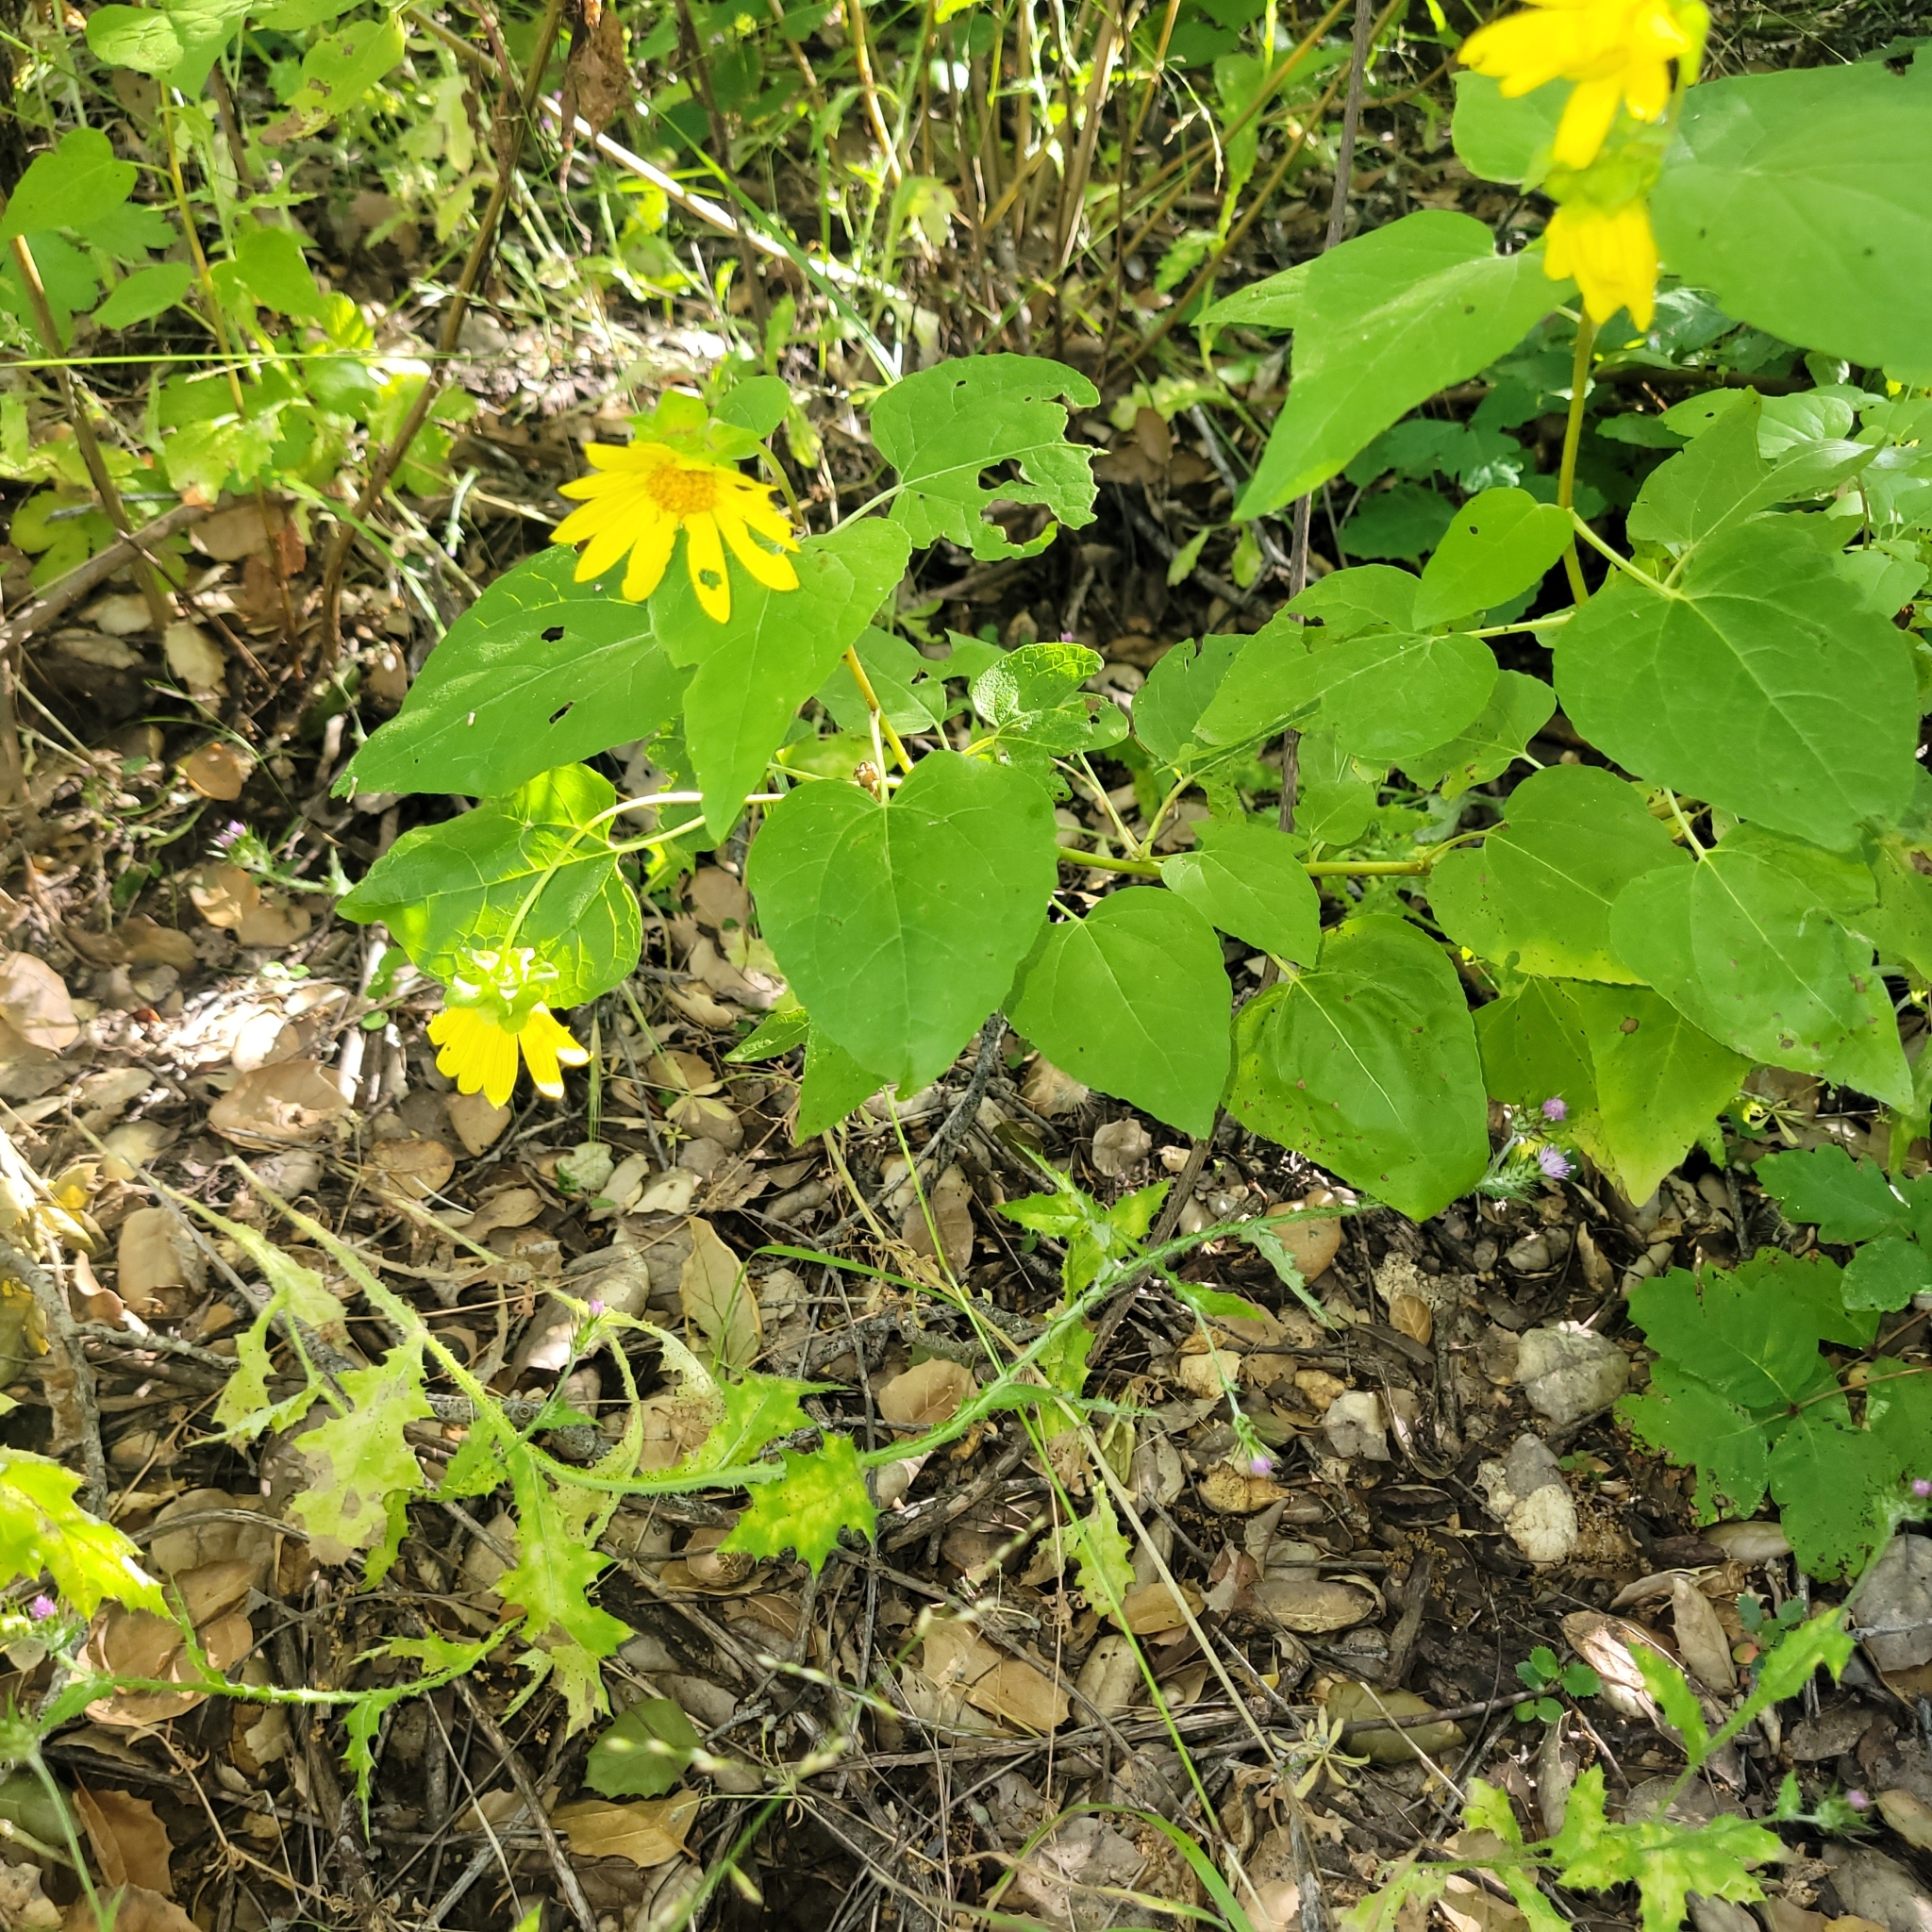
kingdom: Plantae
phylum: Tracheophyta
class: Magnoliopsida
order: Asterales
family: Asteraceae
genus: Venegasia
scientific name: Venegasia carpesioides
